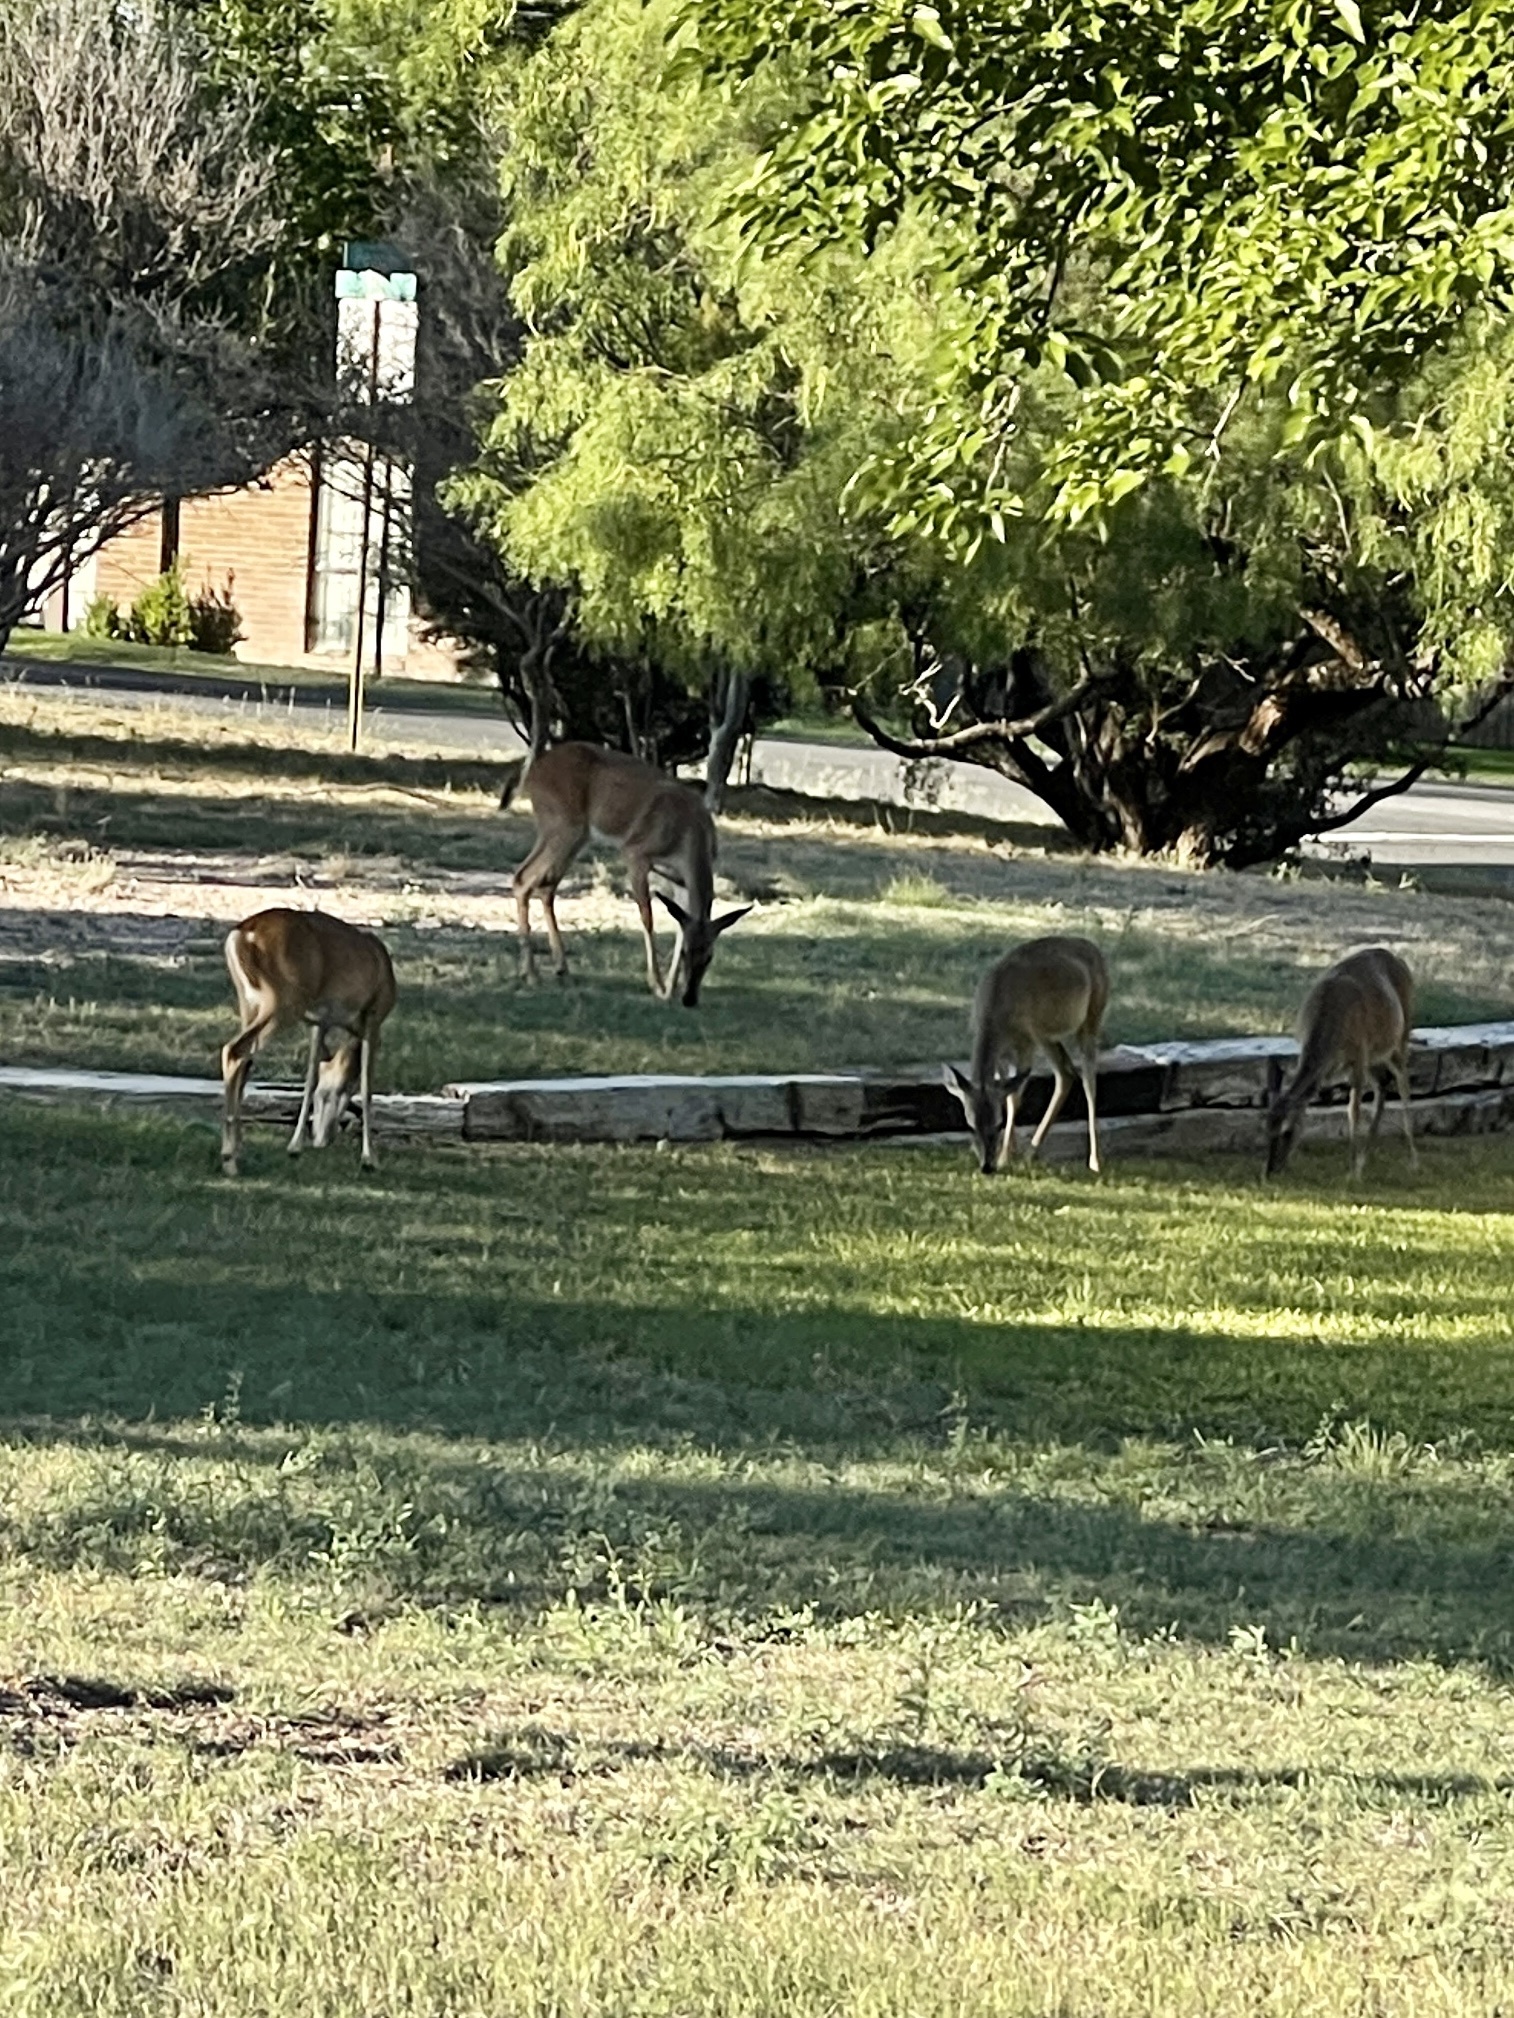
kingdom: Animalia
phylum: Chordata
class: Mammalia
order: Artiodactyla
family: Cervidae
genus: Odocoileus
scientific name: Odocoileus virginianus
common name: White-tailed deer
